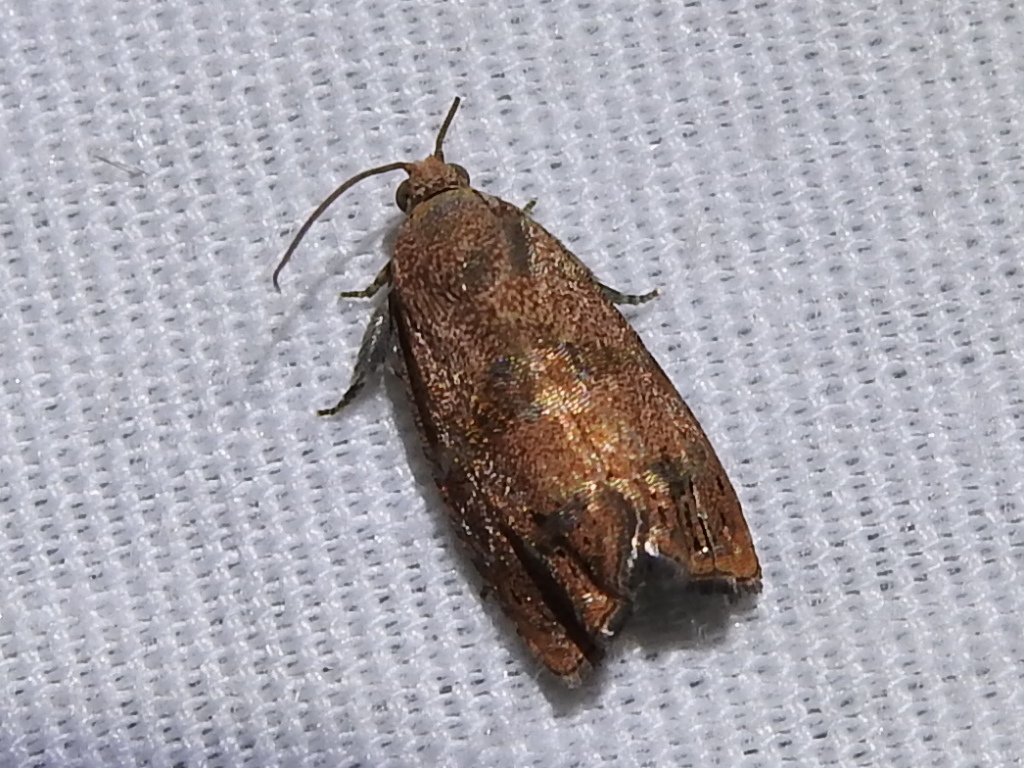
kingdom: Animalia
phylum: Arthropoda
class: Insecta
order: Lepidoptera
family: Tortricidae
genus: Cydia
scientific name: Cydia latiferreana
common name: Filbertworm moth
